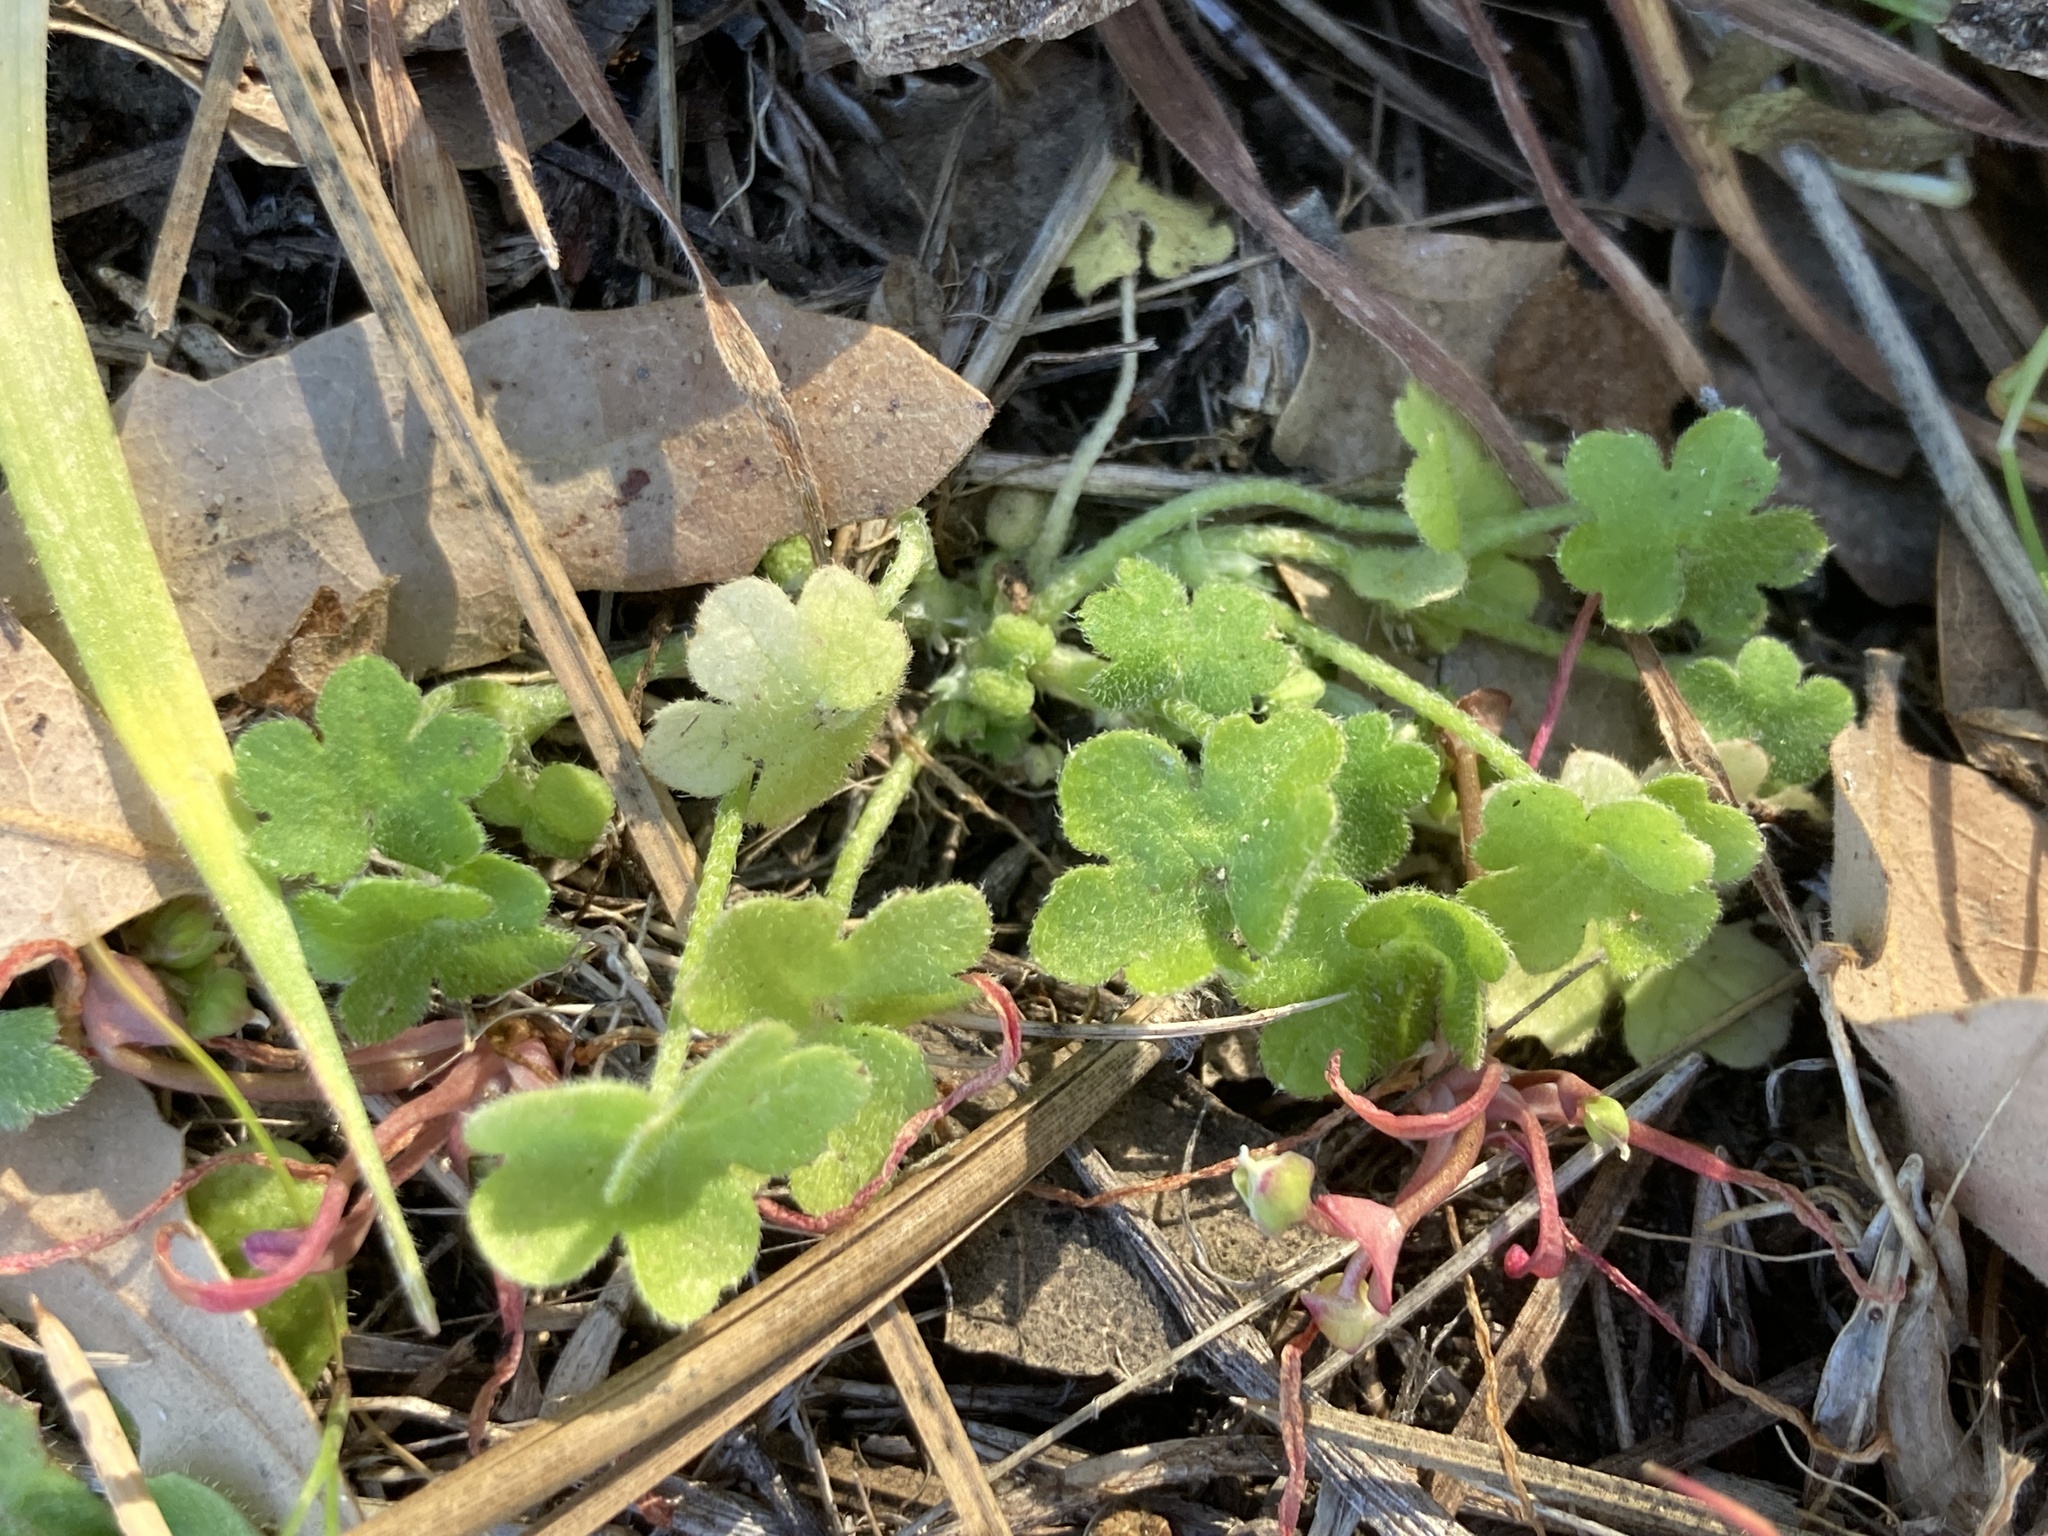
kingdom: Plantae
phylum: Tracheophyta
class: Magnoliopsida
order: Apiales
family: Apiaceae
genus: Bowlesia
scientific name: Bowlesia incana
